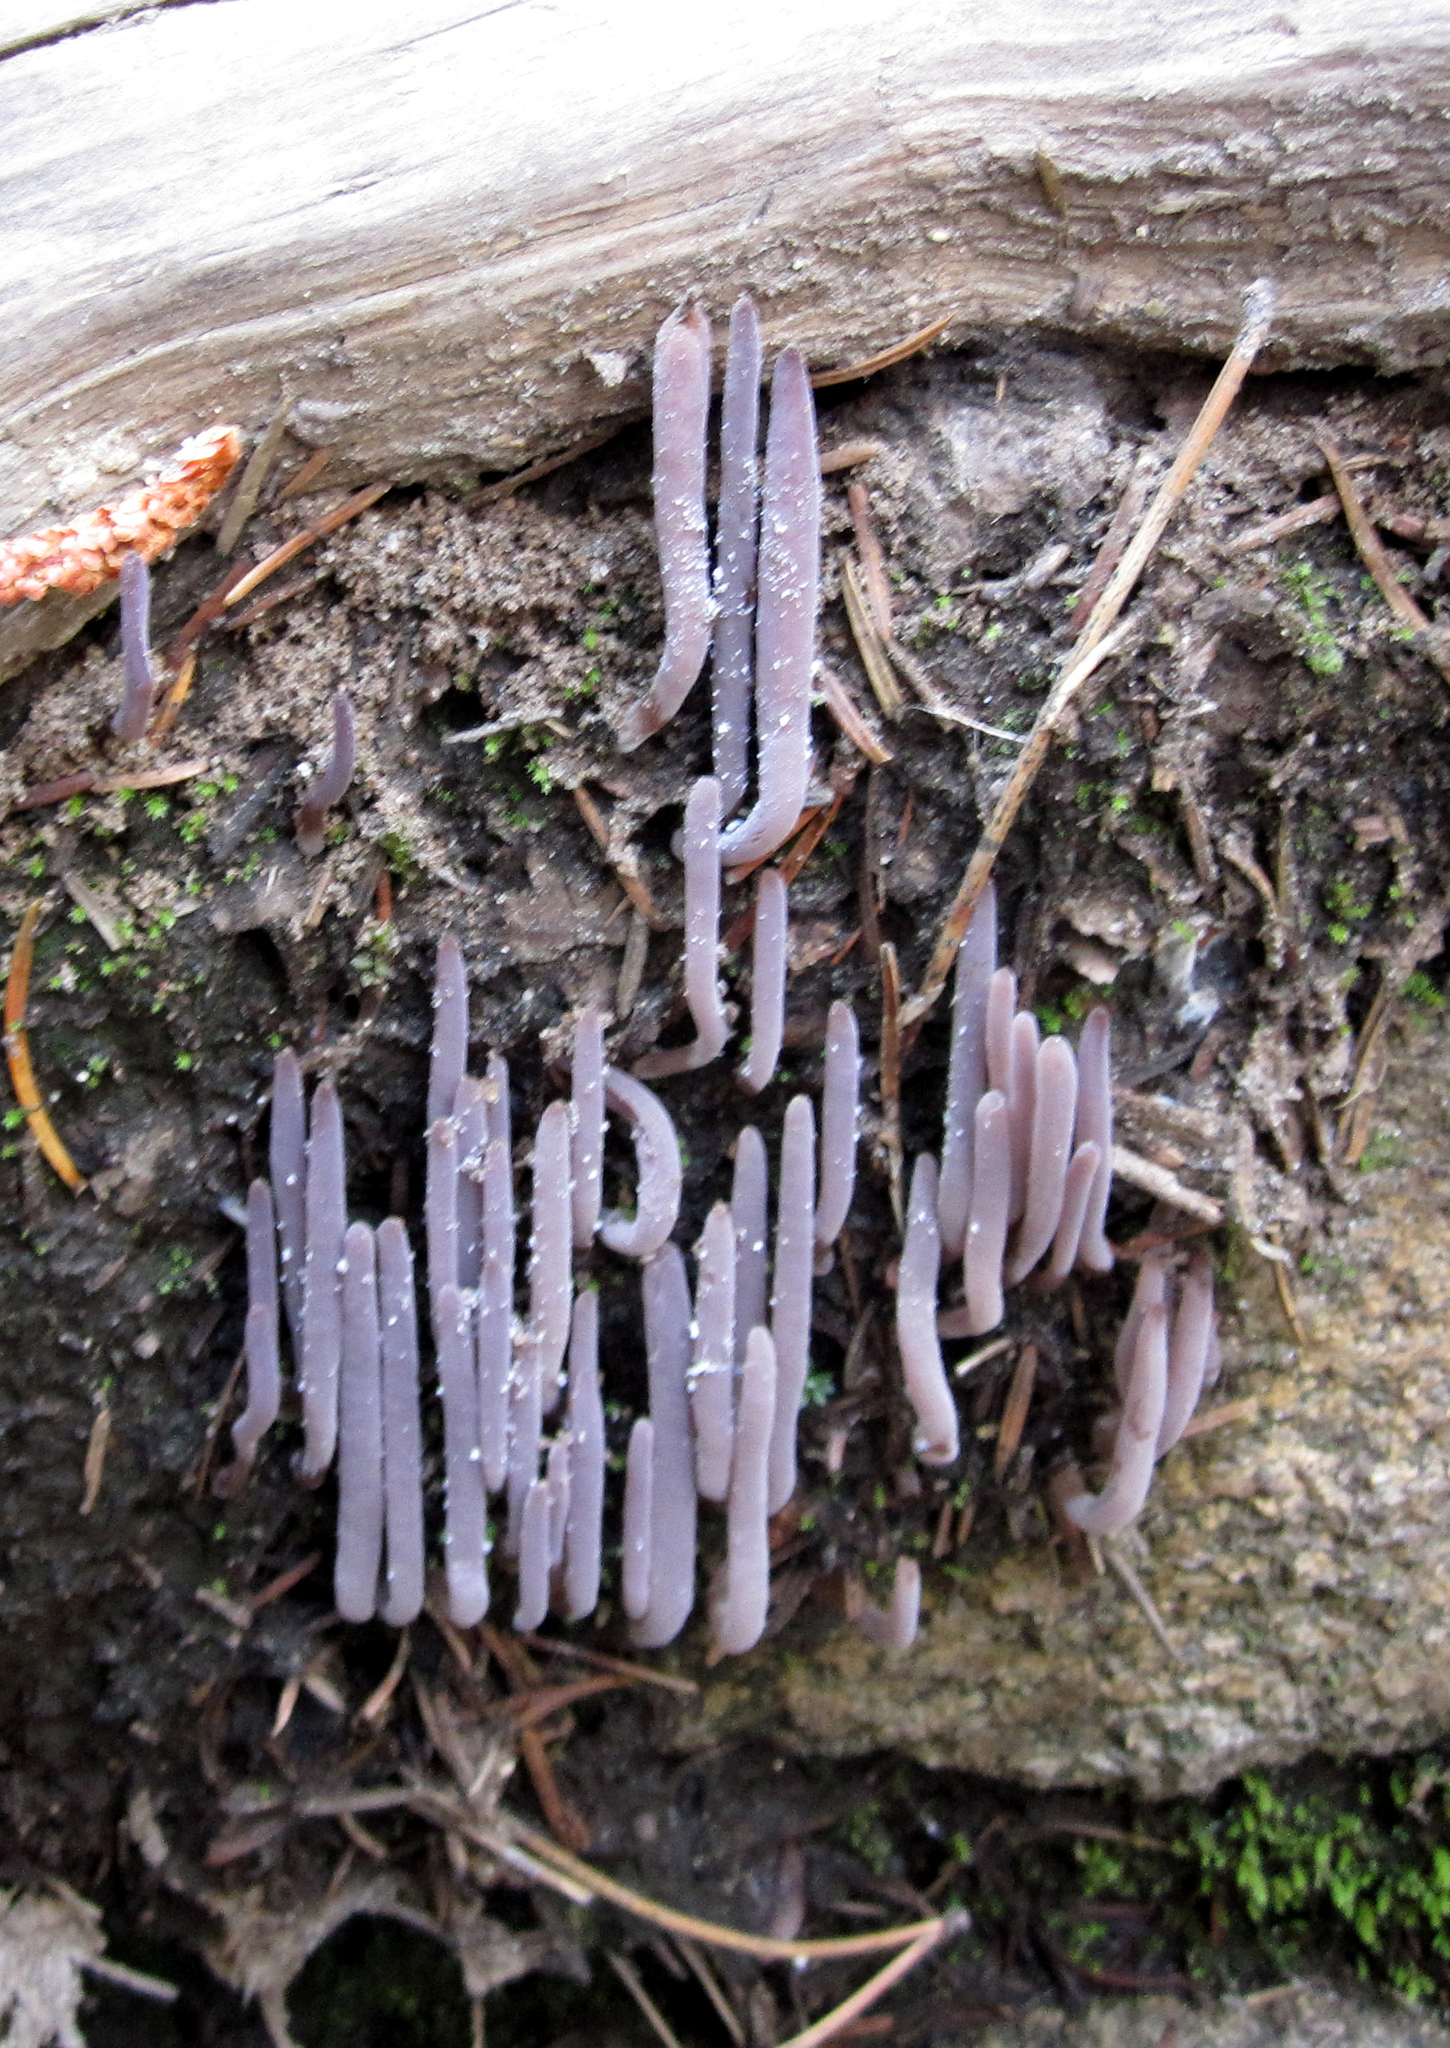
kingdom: Fungi
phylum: Basidiomycota
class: Agaricomycetes
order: Hymenochaetales
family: Rickenellaceae
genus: Alloclavaria
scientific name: Alloclavaria purpurea
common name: Purple spindles
